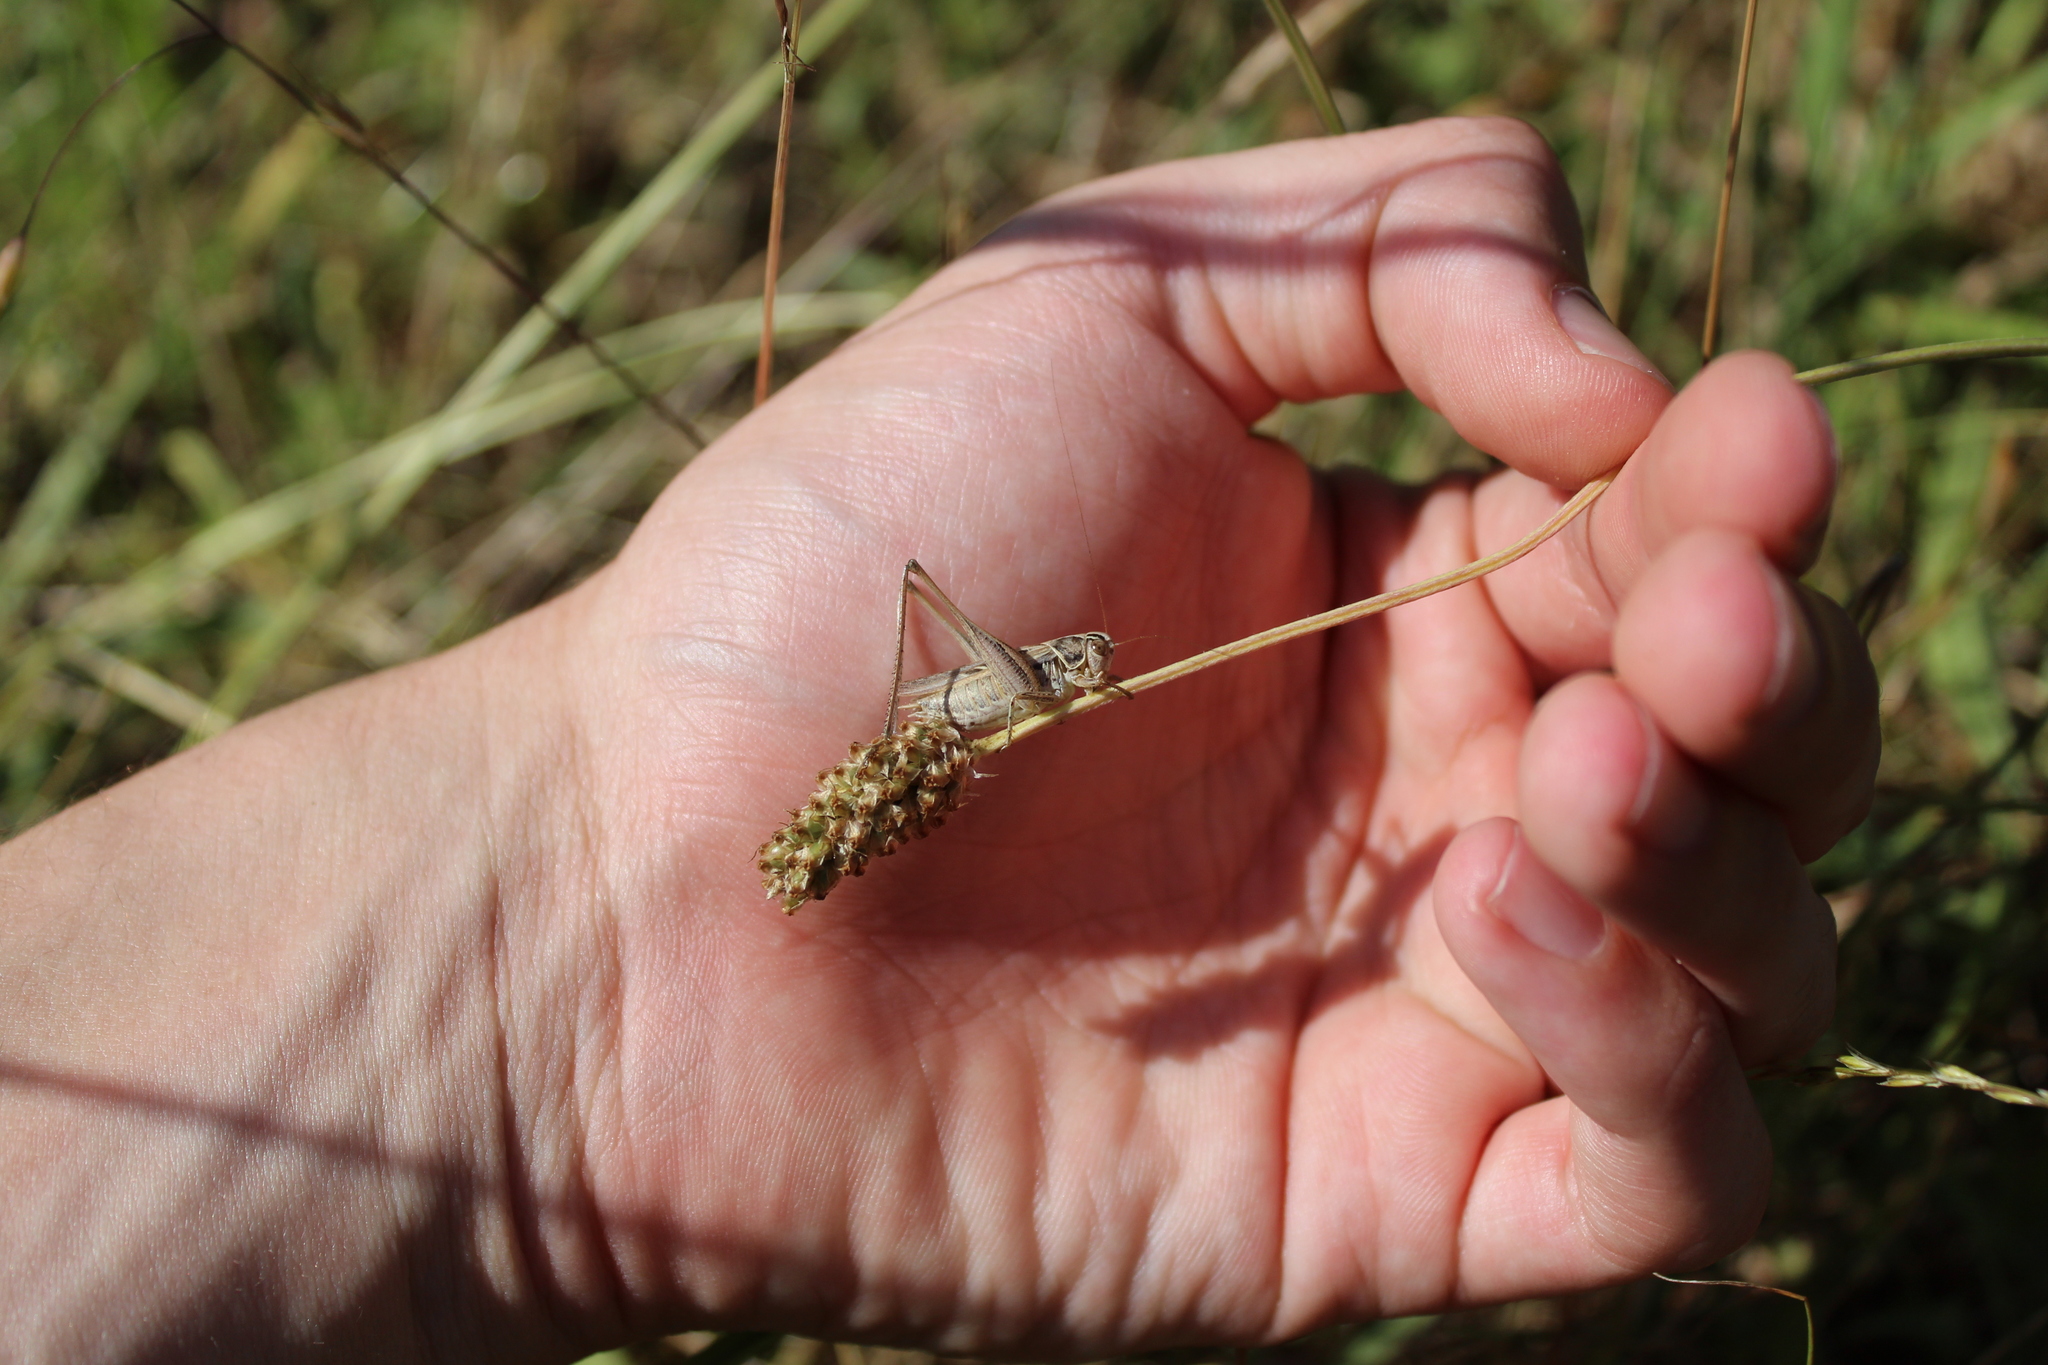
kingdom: Animalia
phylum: Arthropoda
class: Insecta
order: Orthoptera
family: Tettigoniidae
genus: Tessellana
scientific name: Tessellana tessellata
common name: Grasshopper
